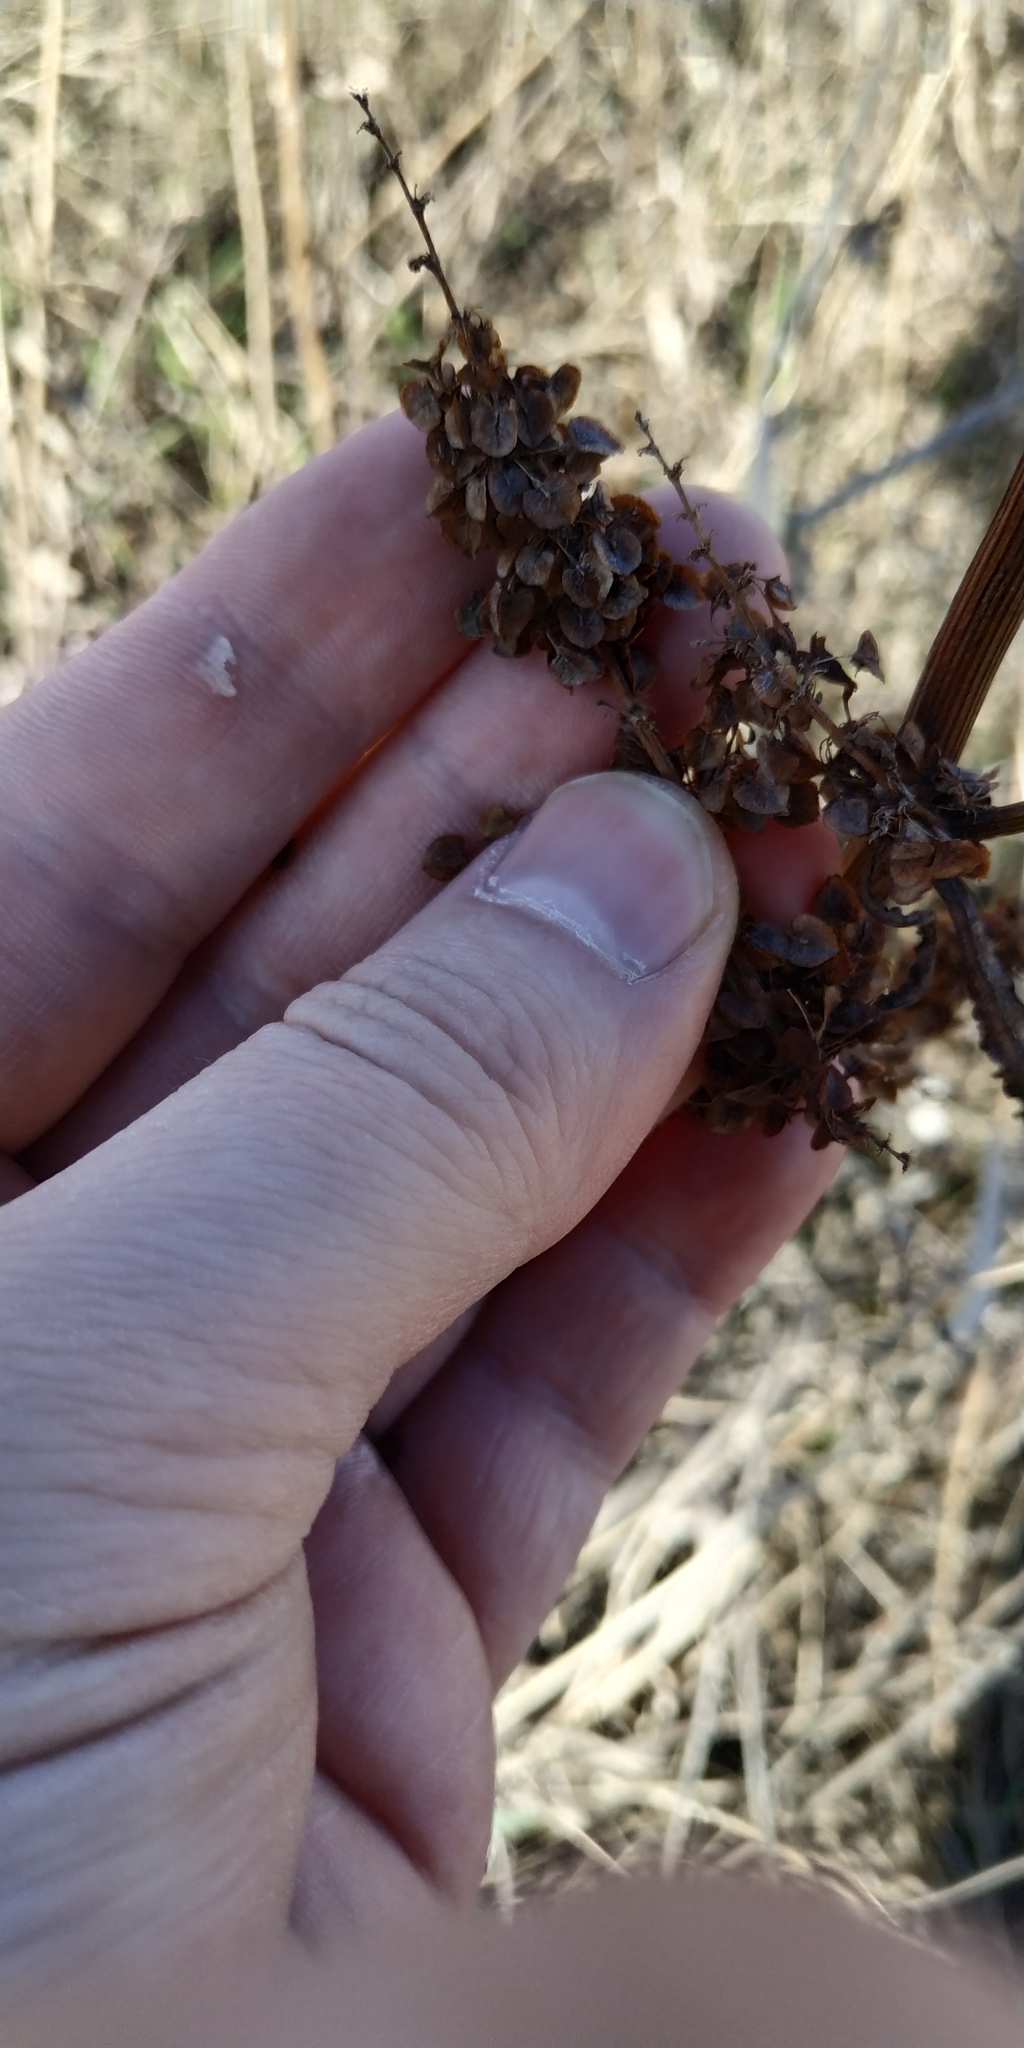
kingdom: Plantae
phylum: Tracheophyta
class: Magnoliopsida
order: Caryophyllales
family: Polygonaceae
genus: Rumex
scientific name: Rumex pseudonatronatus
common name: Field dock
